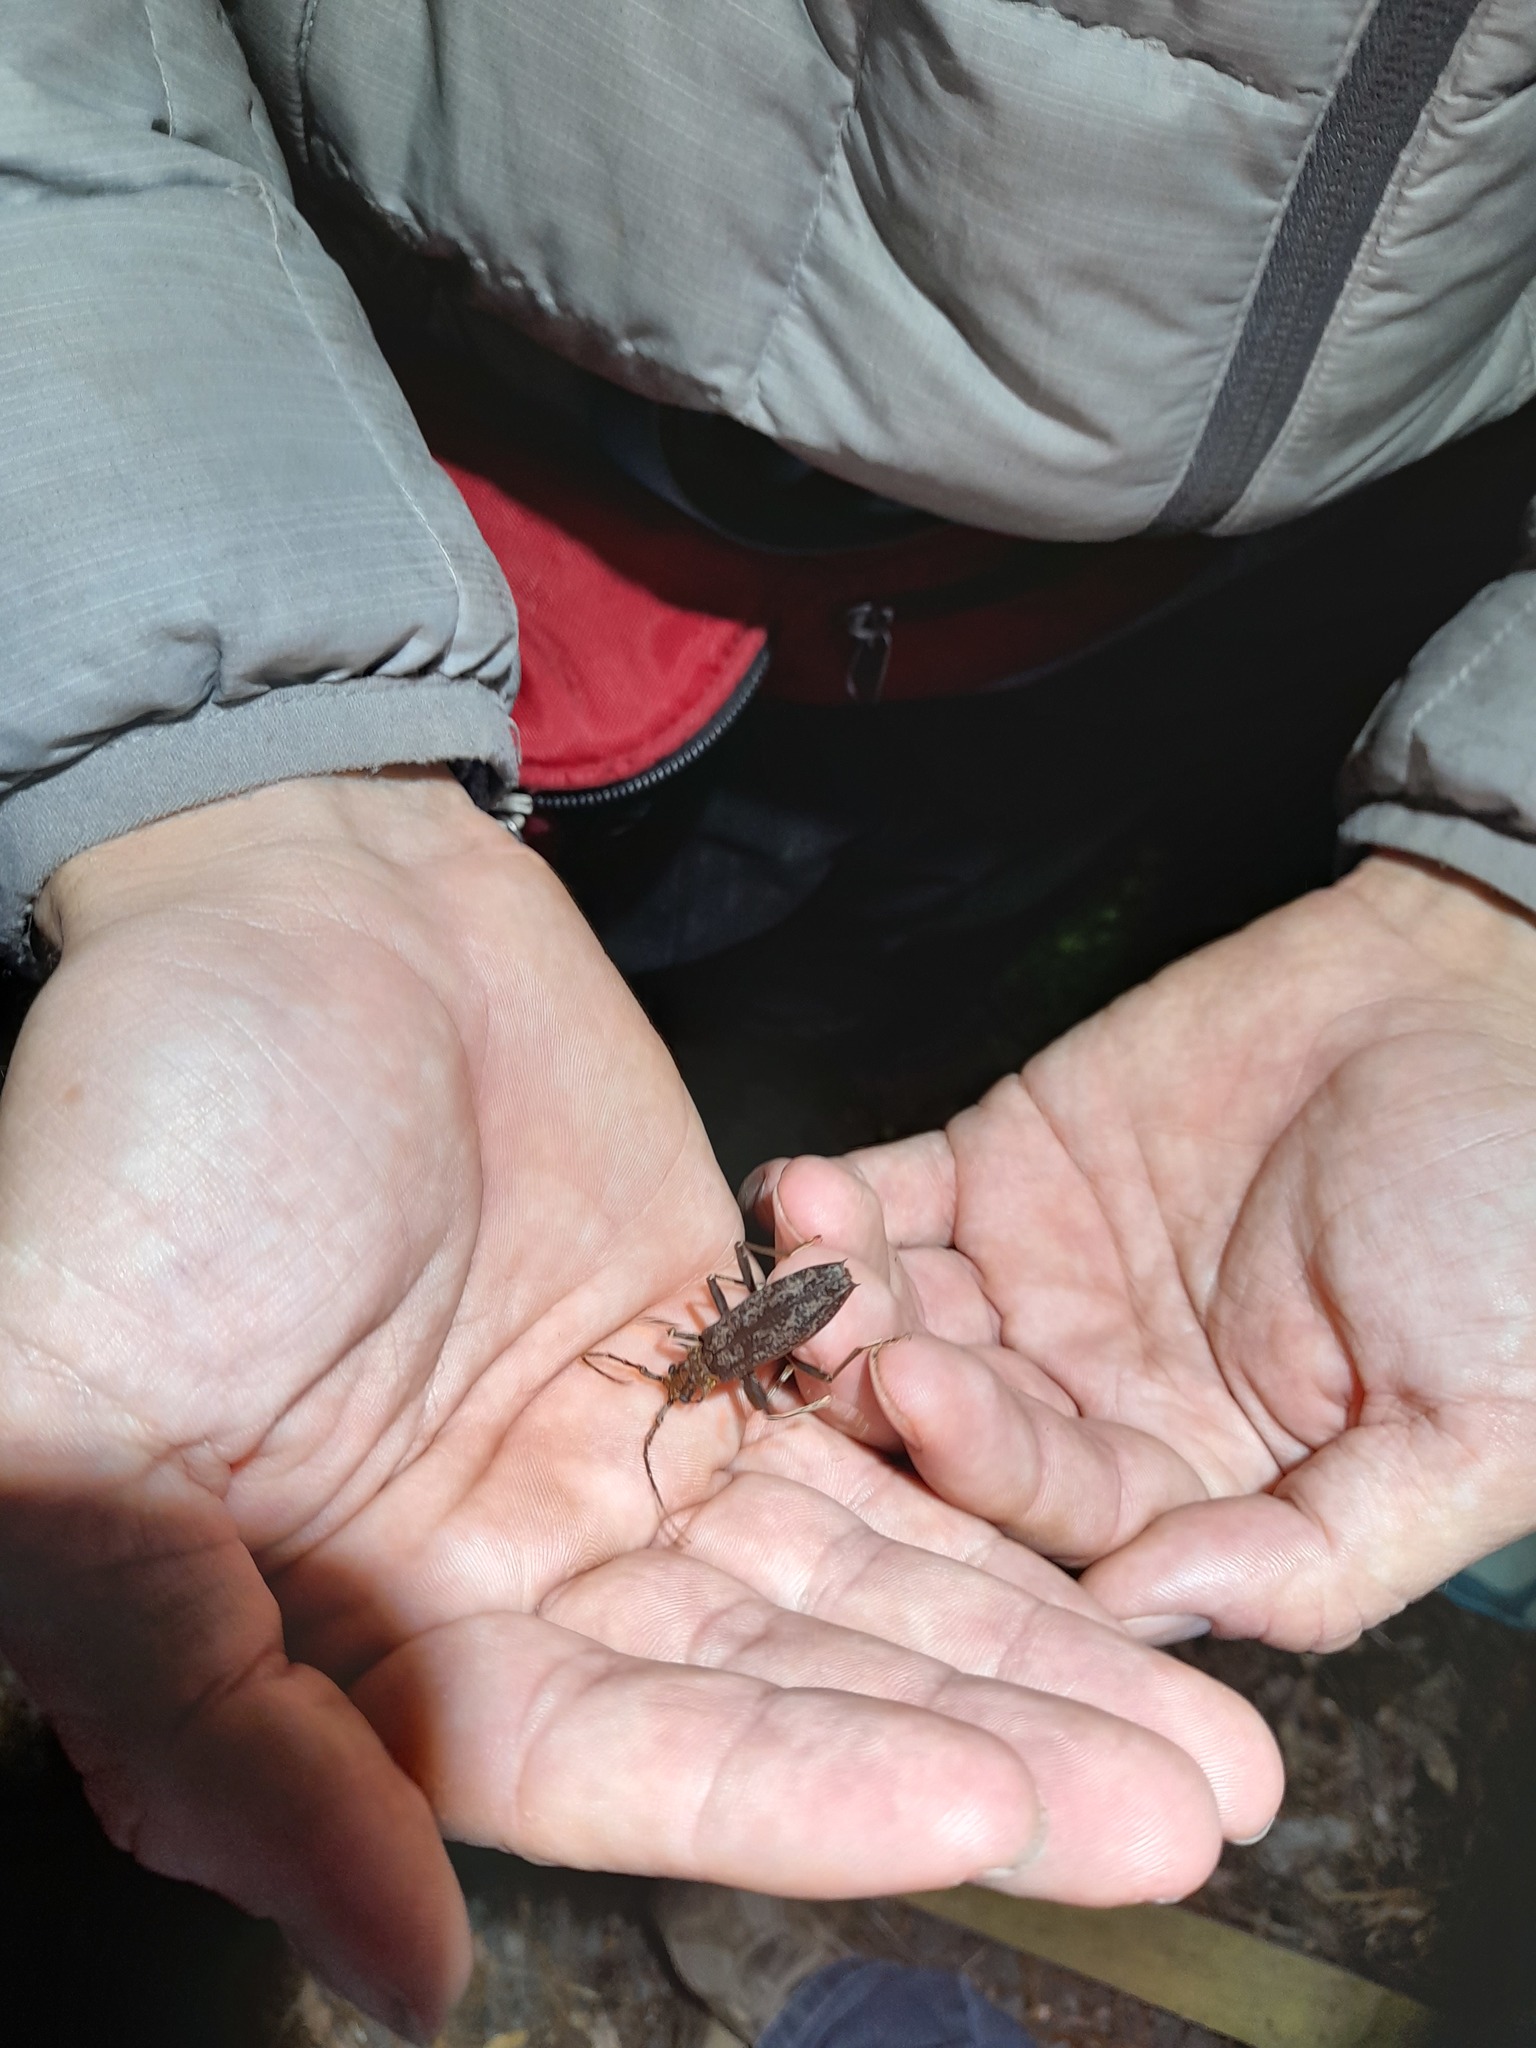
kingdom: Animalia
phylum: Arthropoda
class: Insecta
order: Coleoptera
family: Cerambycidae
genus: Blosyropus
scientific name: Blosyropus spinosus
